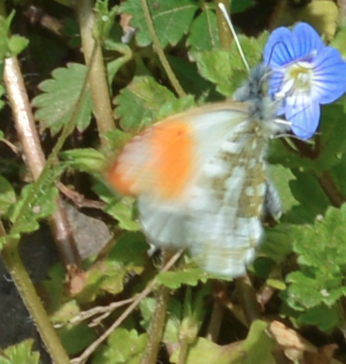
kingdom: Animalia
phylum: Arthropoda
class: Insecta
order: Lepidoptera
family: Pieridae
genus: Anthocharis
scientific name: Anthocharis cardamines
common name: Orange-tip
